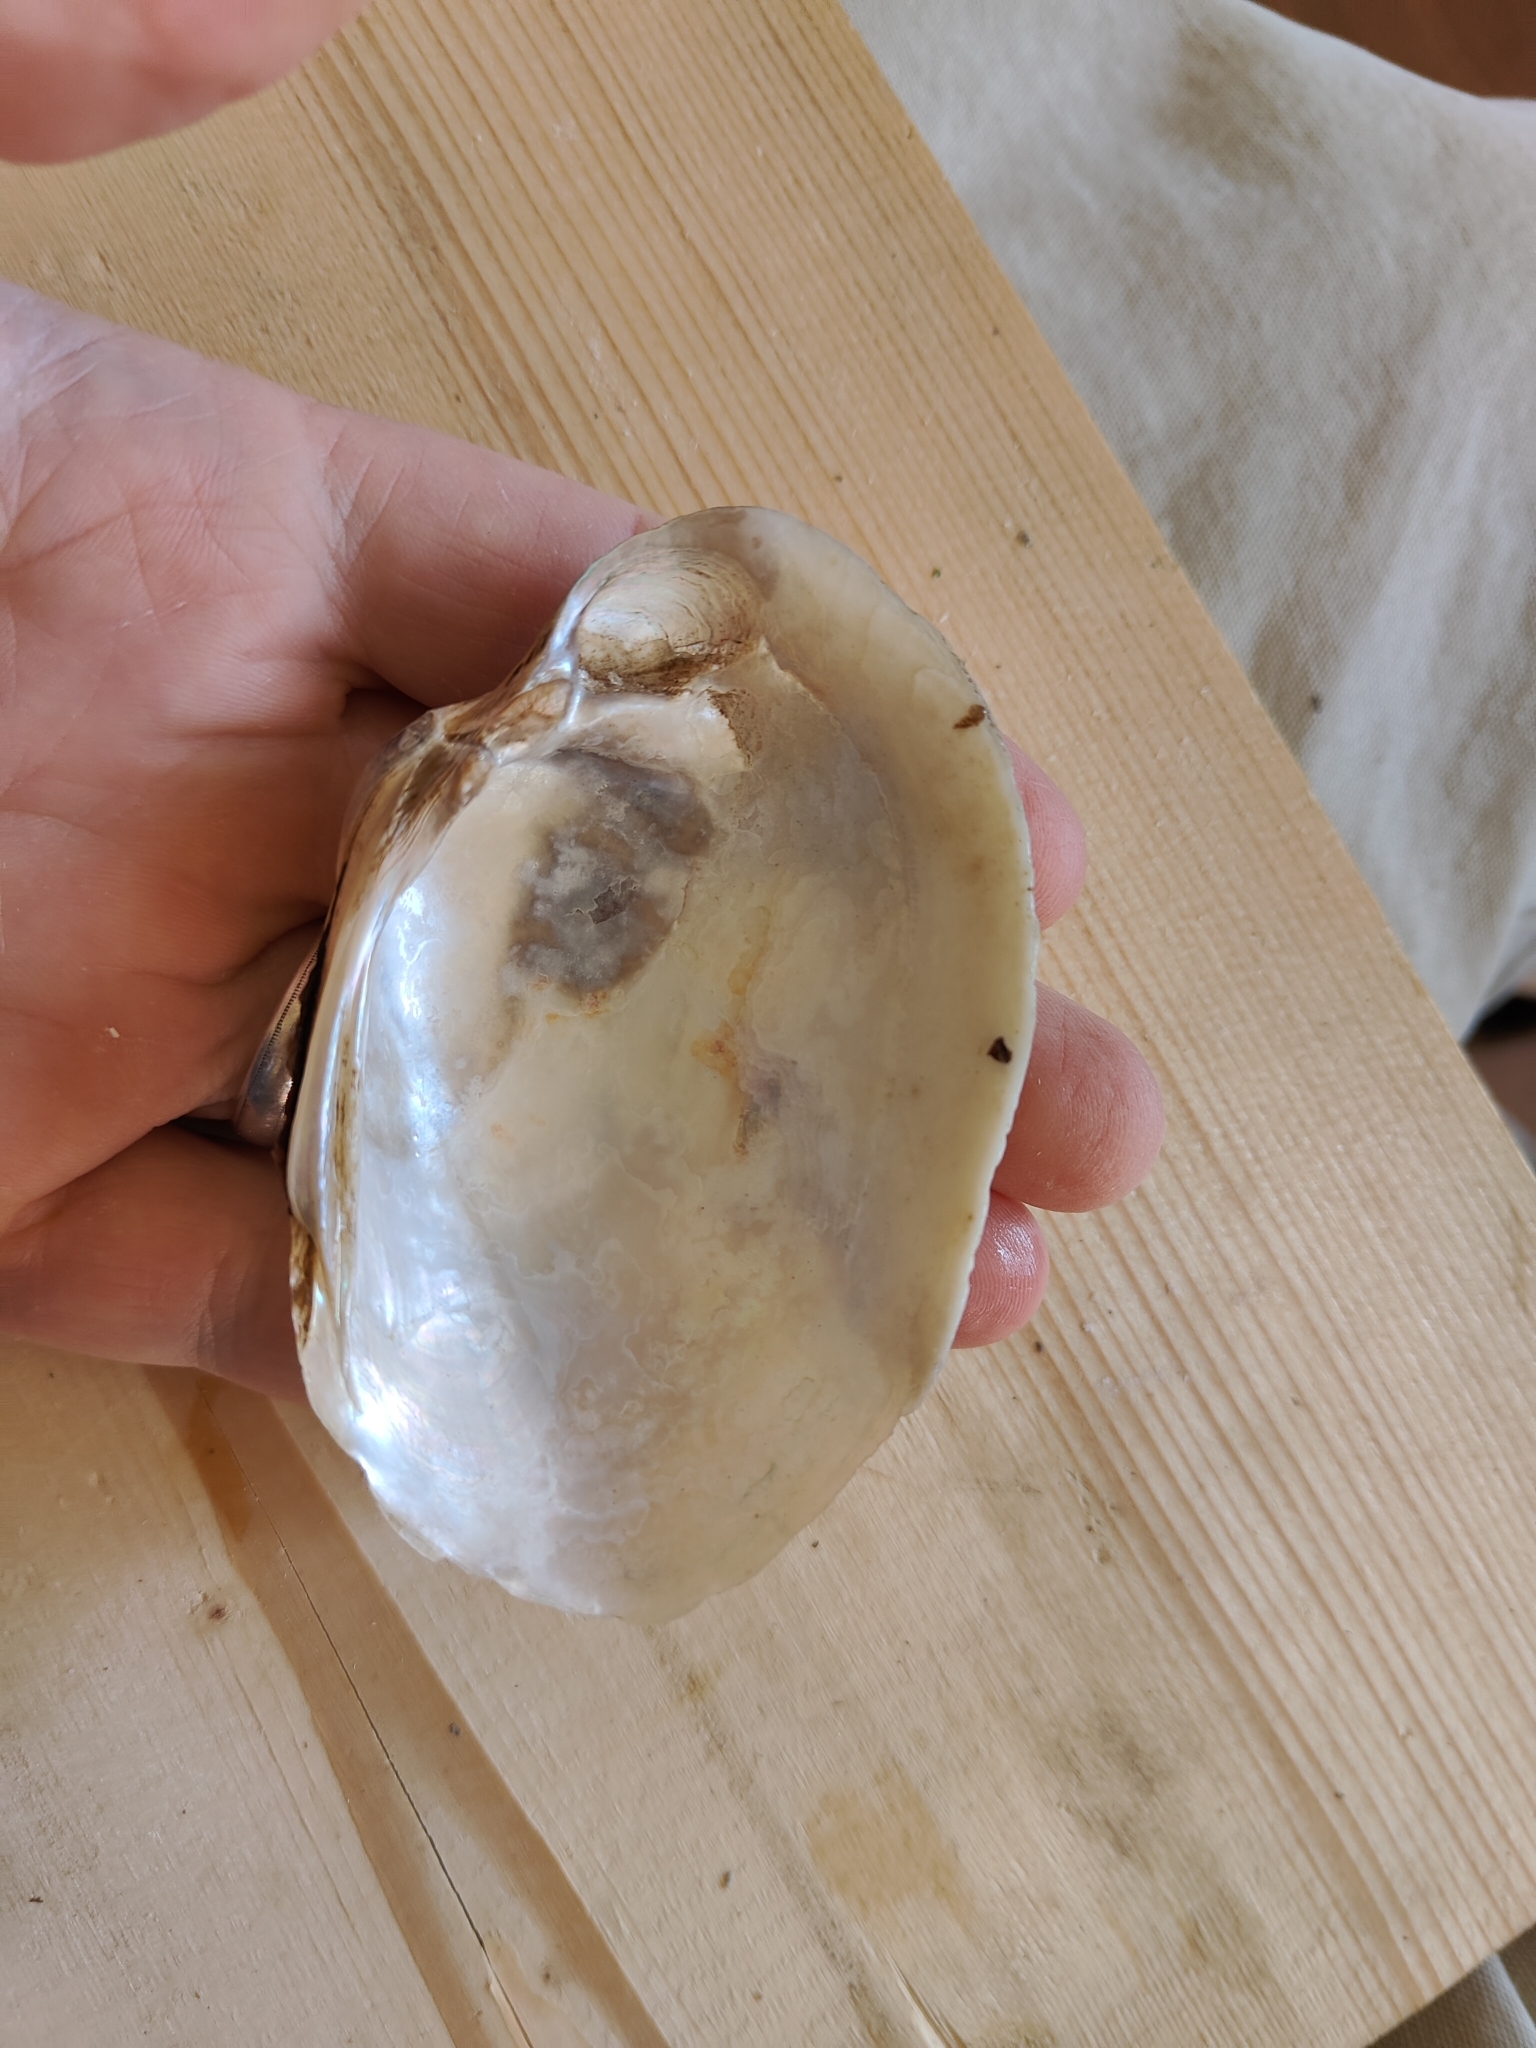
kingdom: Animalia
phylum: Mollusca
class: Bivalvia
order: Unionida
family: Unionidae
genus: Lampsilis
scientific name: Lampsilis cardium
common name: Plain pocketbook
